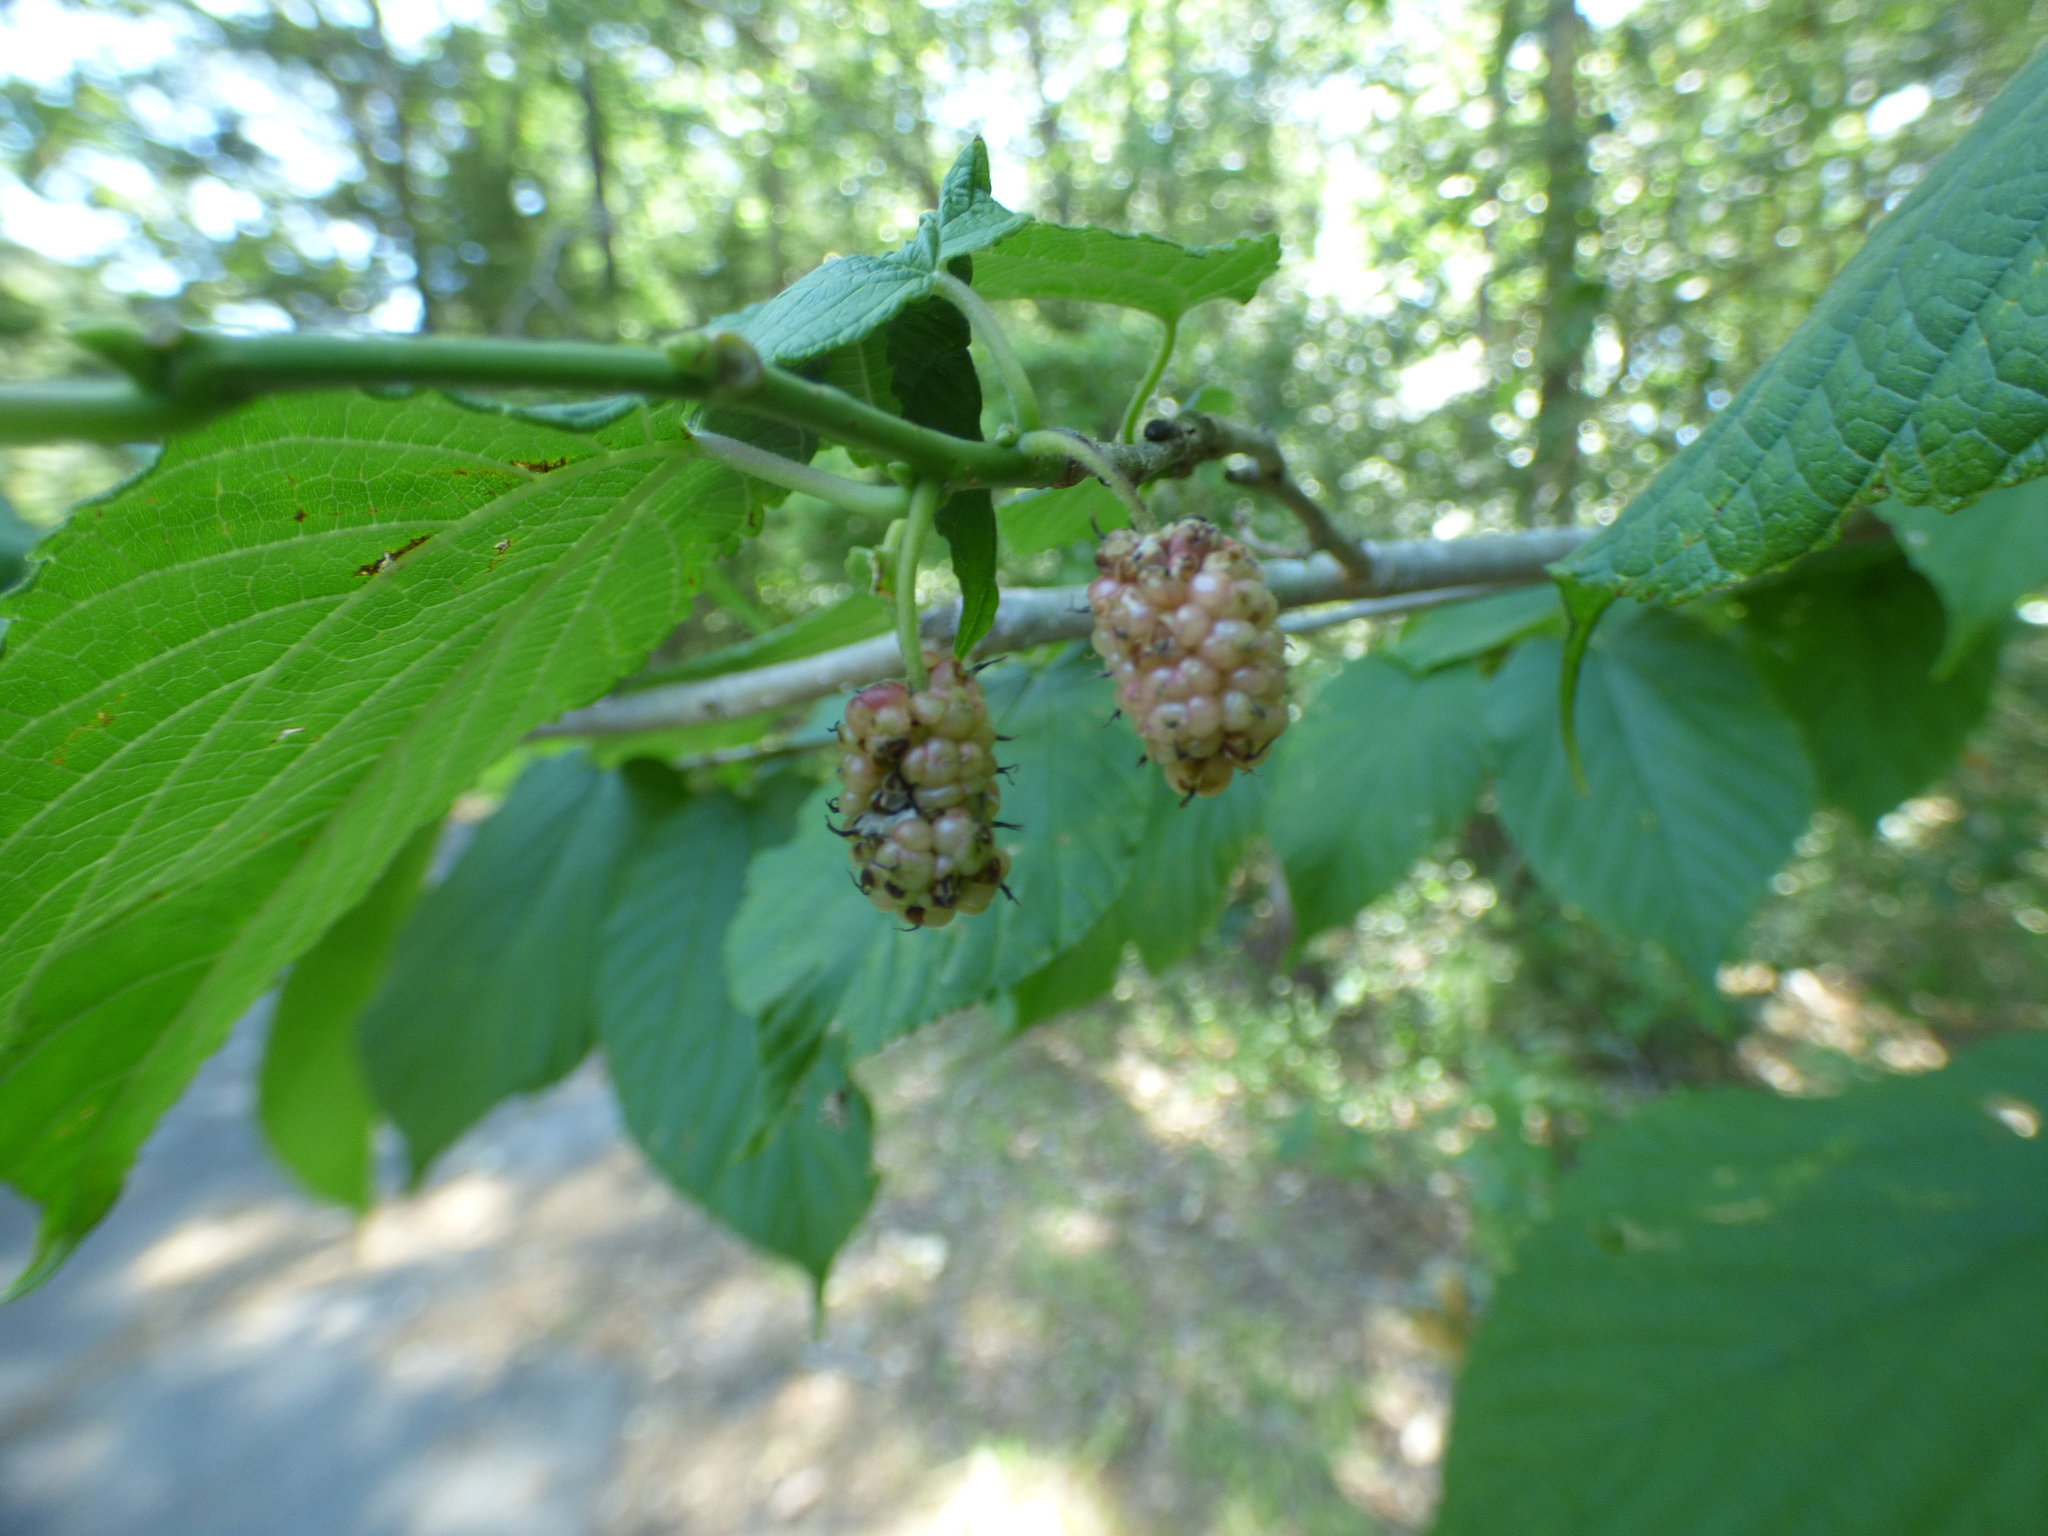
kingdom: Plantae
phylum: Tracheophyta
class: Magnoliopsida
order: Rosales
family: Moraceae
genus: Morus
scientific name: Morus rubra
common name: Red mulberry
